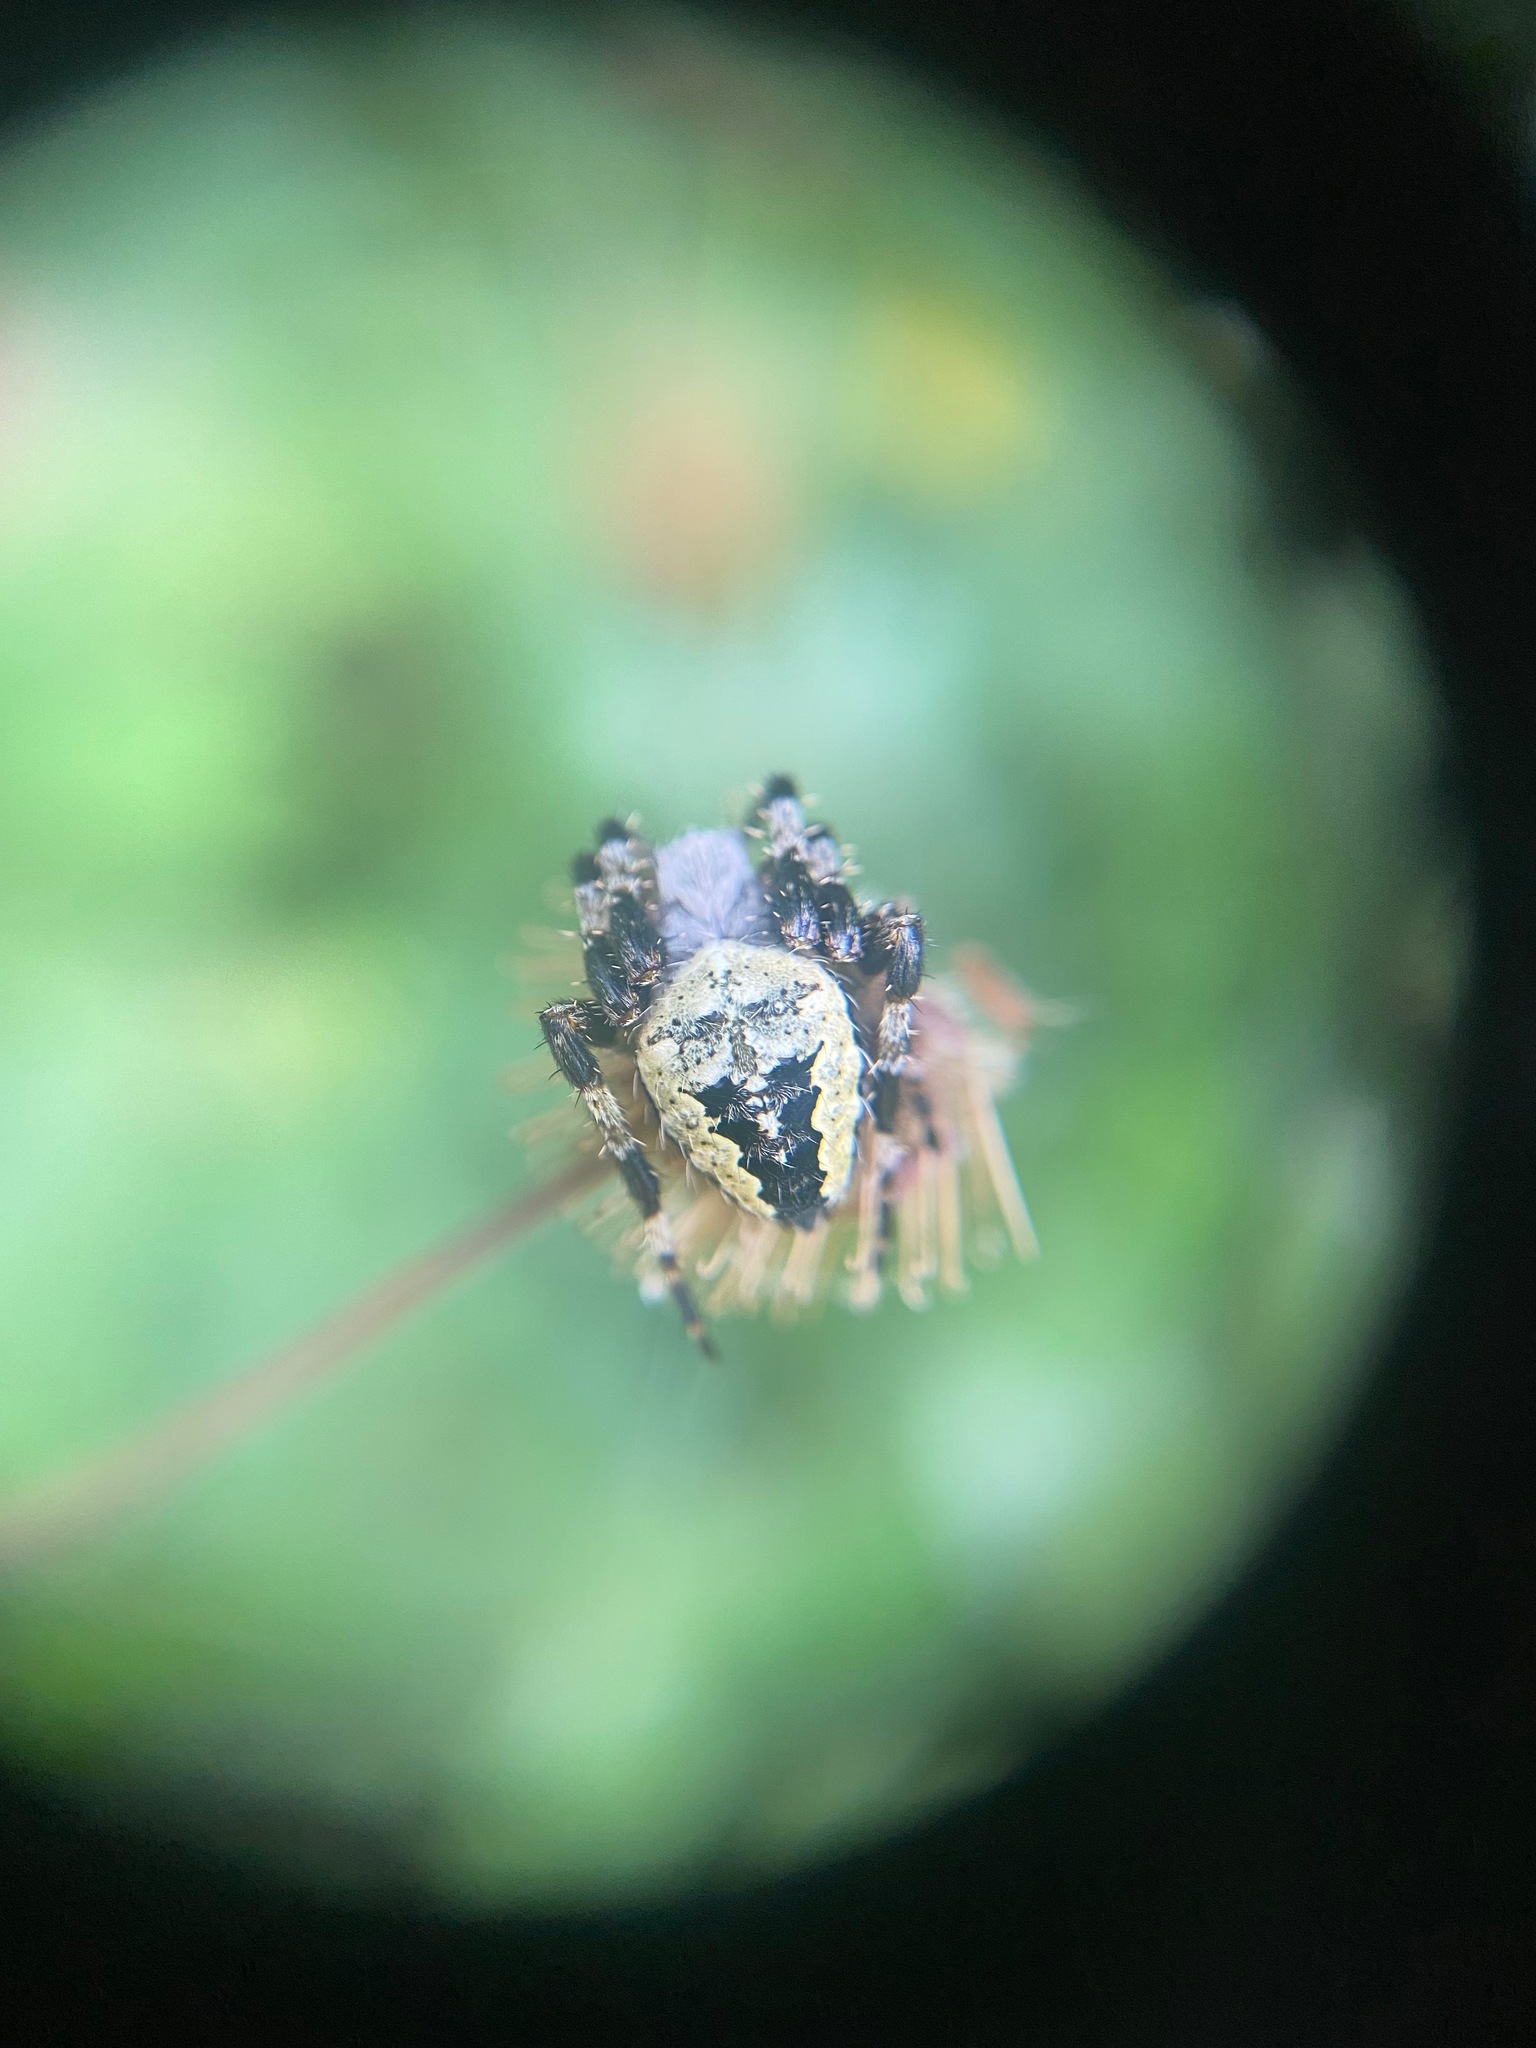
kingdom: Animalia
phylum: Arthropoda
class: Arachnida
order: Araneae
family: Araneidae
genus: Araneus
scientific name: Araneus nordmanni
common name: Nordmann's orbweaver
